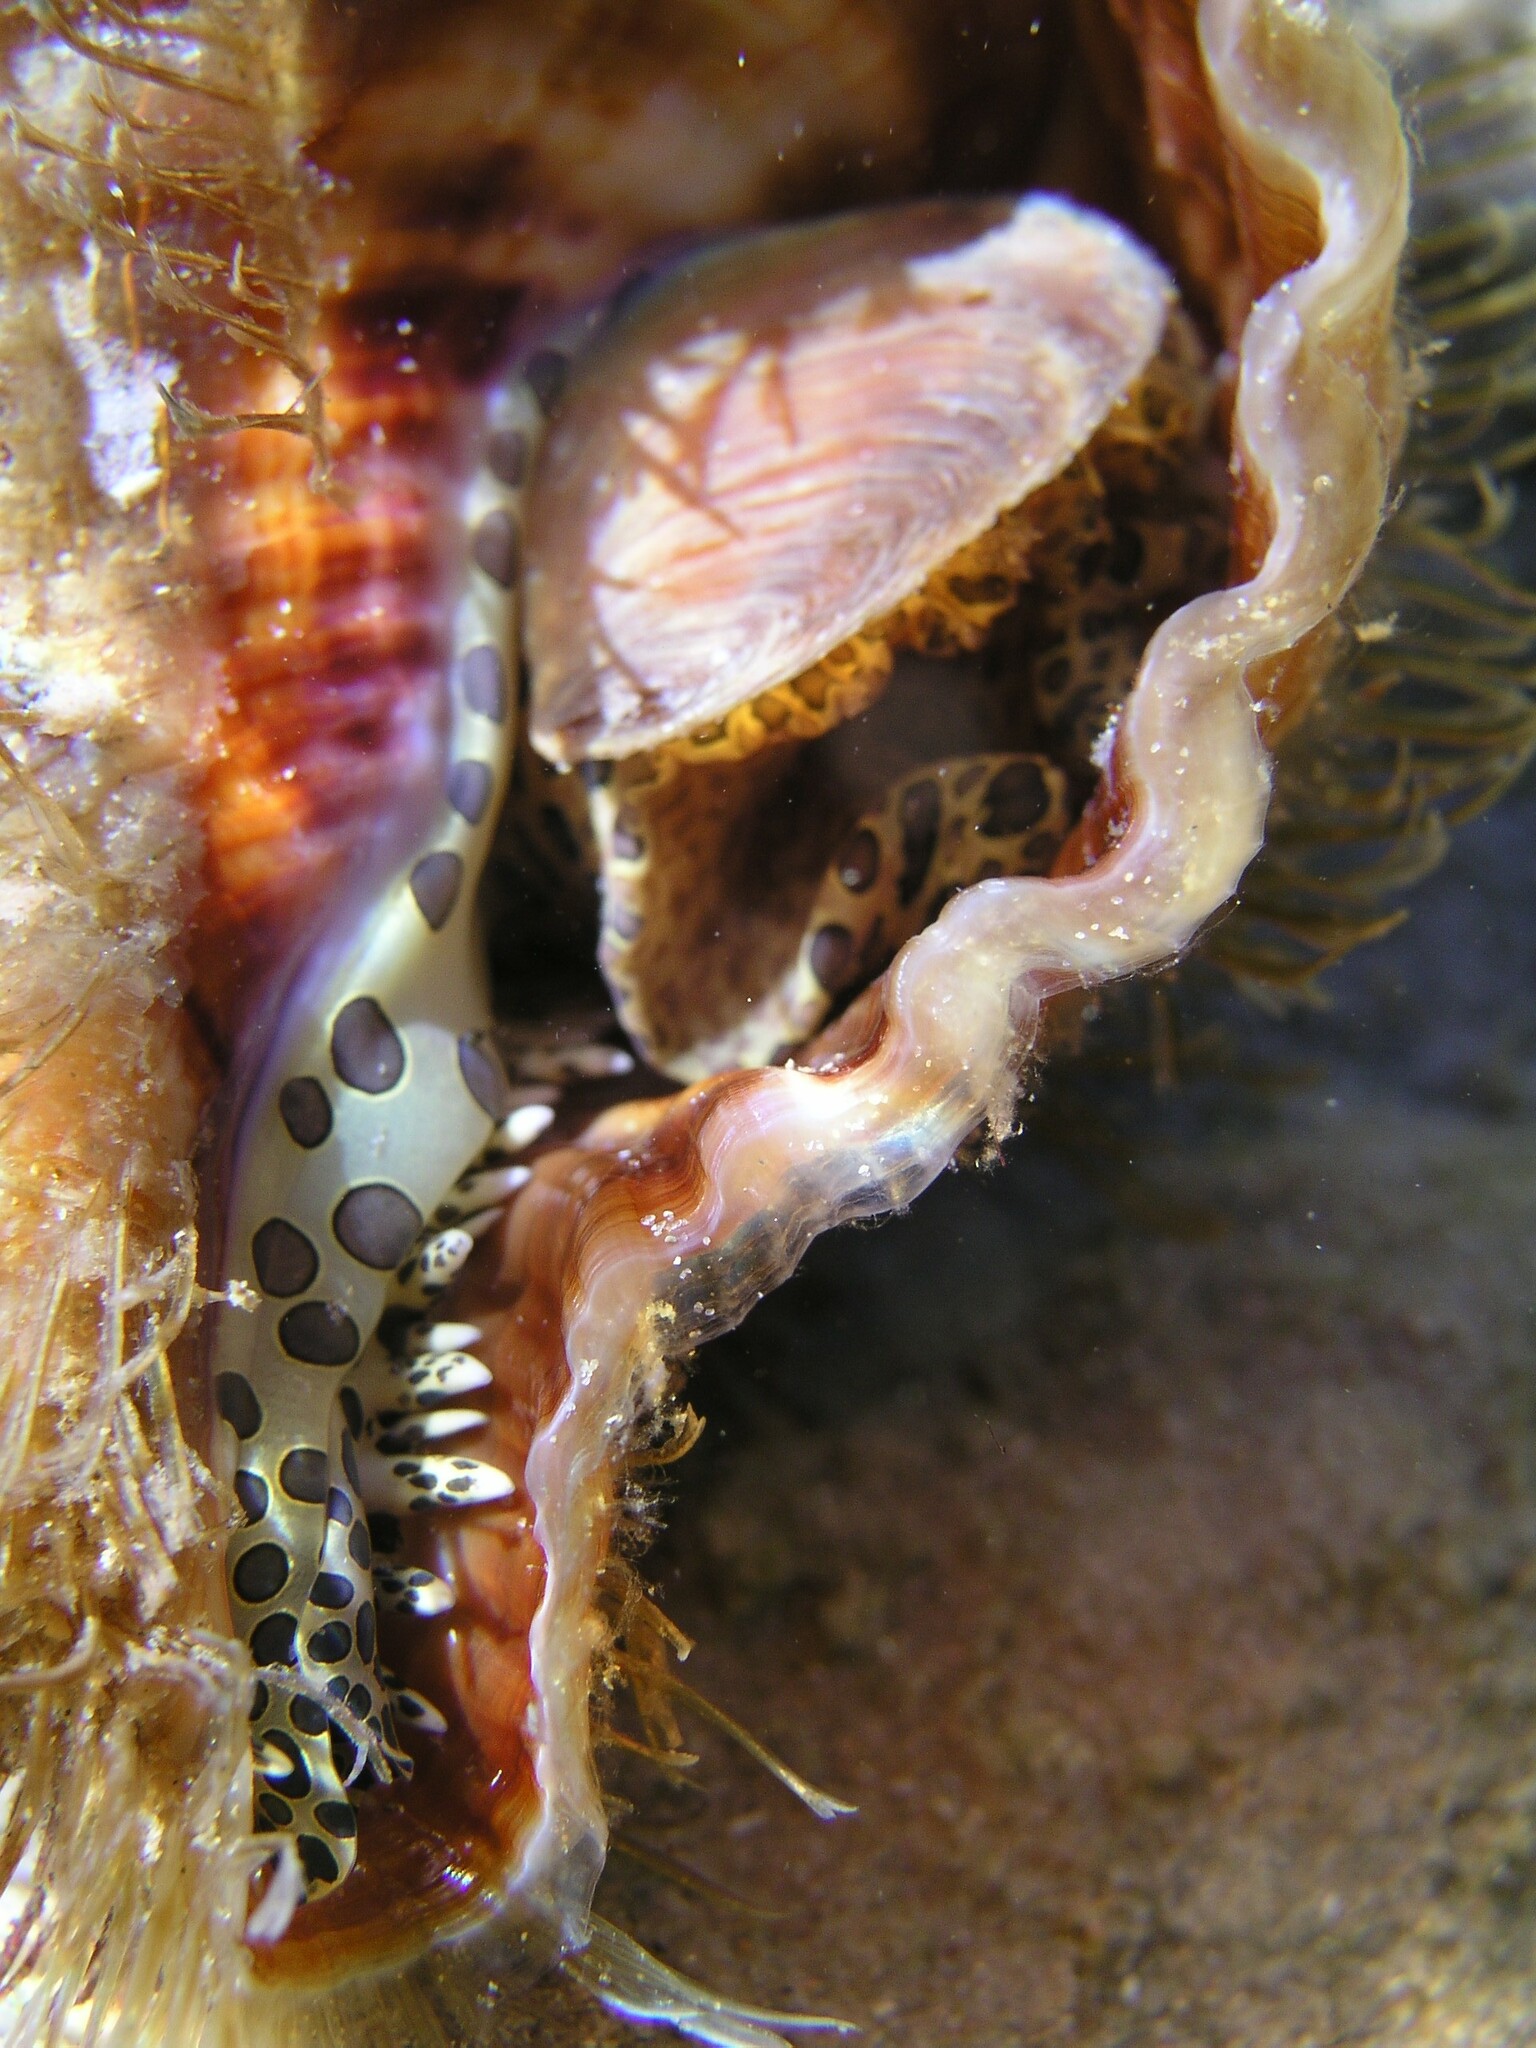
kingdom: Animalia
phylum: Mollusca
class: Gastropoda
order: Littorinimorpha
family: Cymatiidae
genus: Monoplex
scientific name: Monoplex parthenopeus
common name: Giant triton
